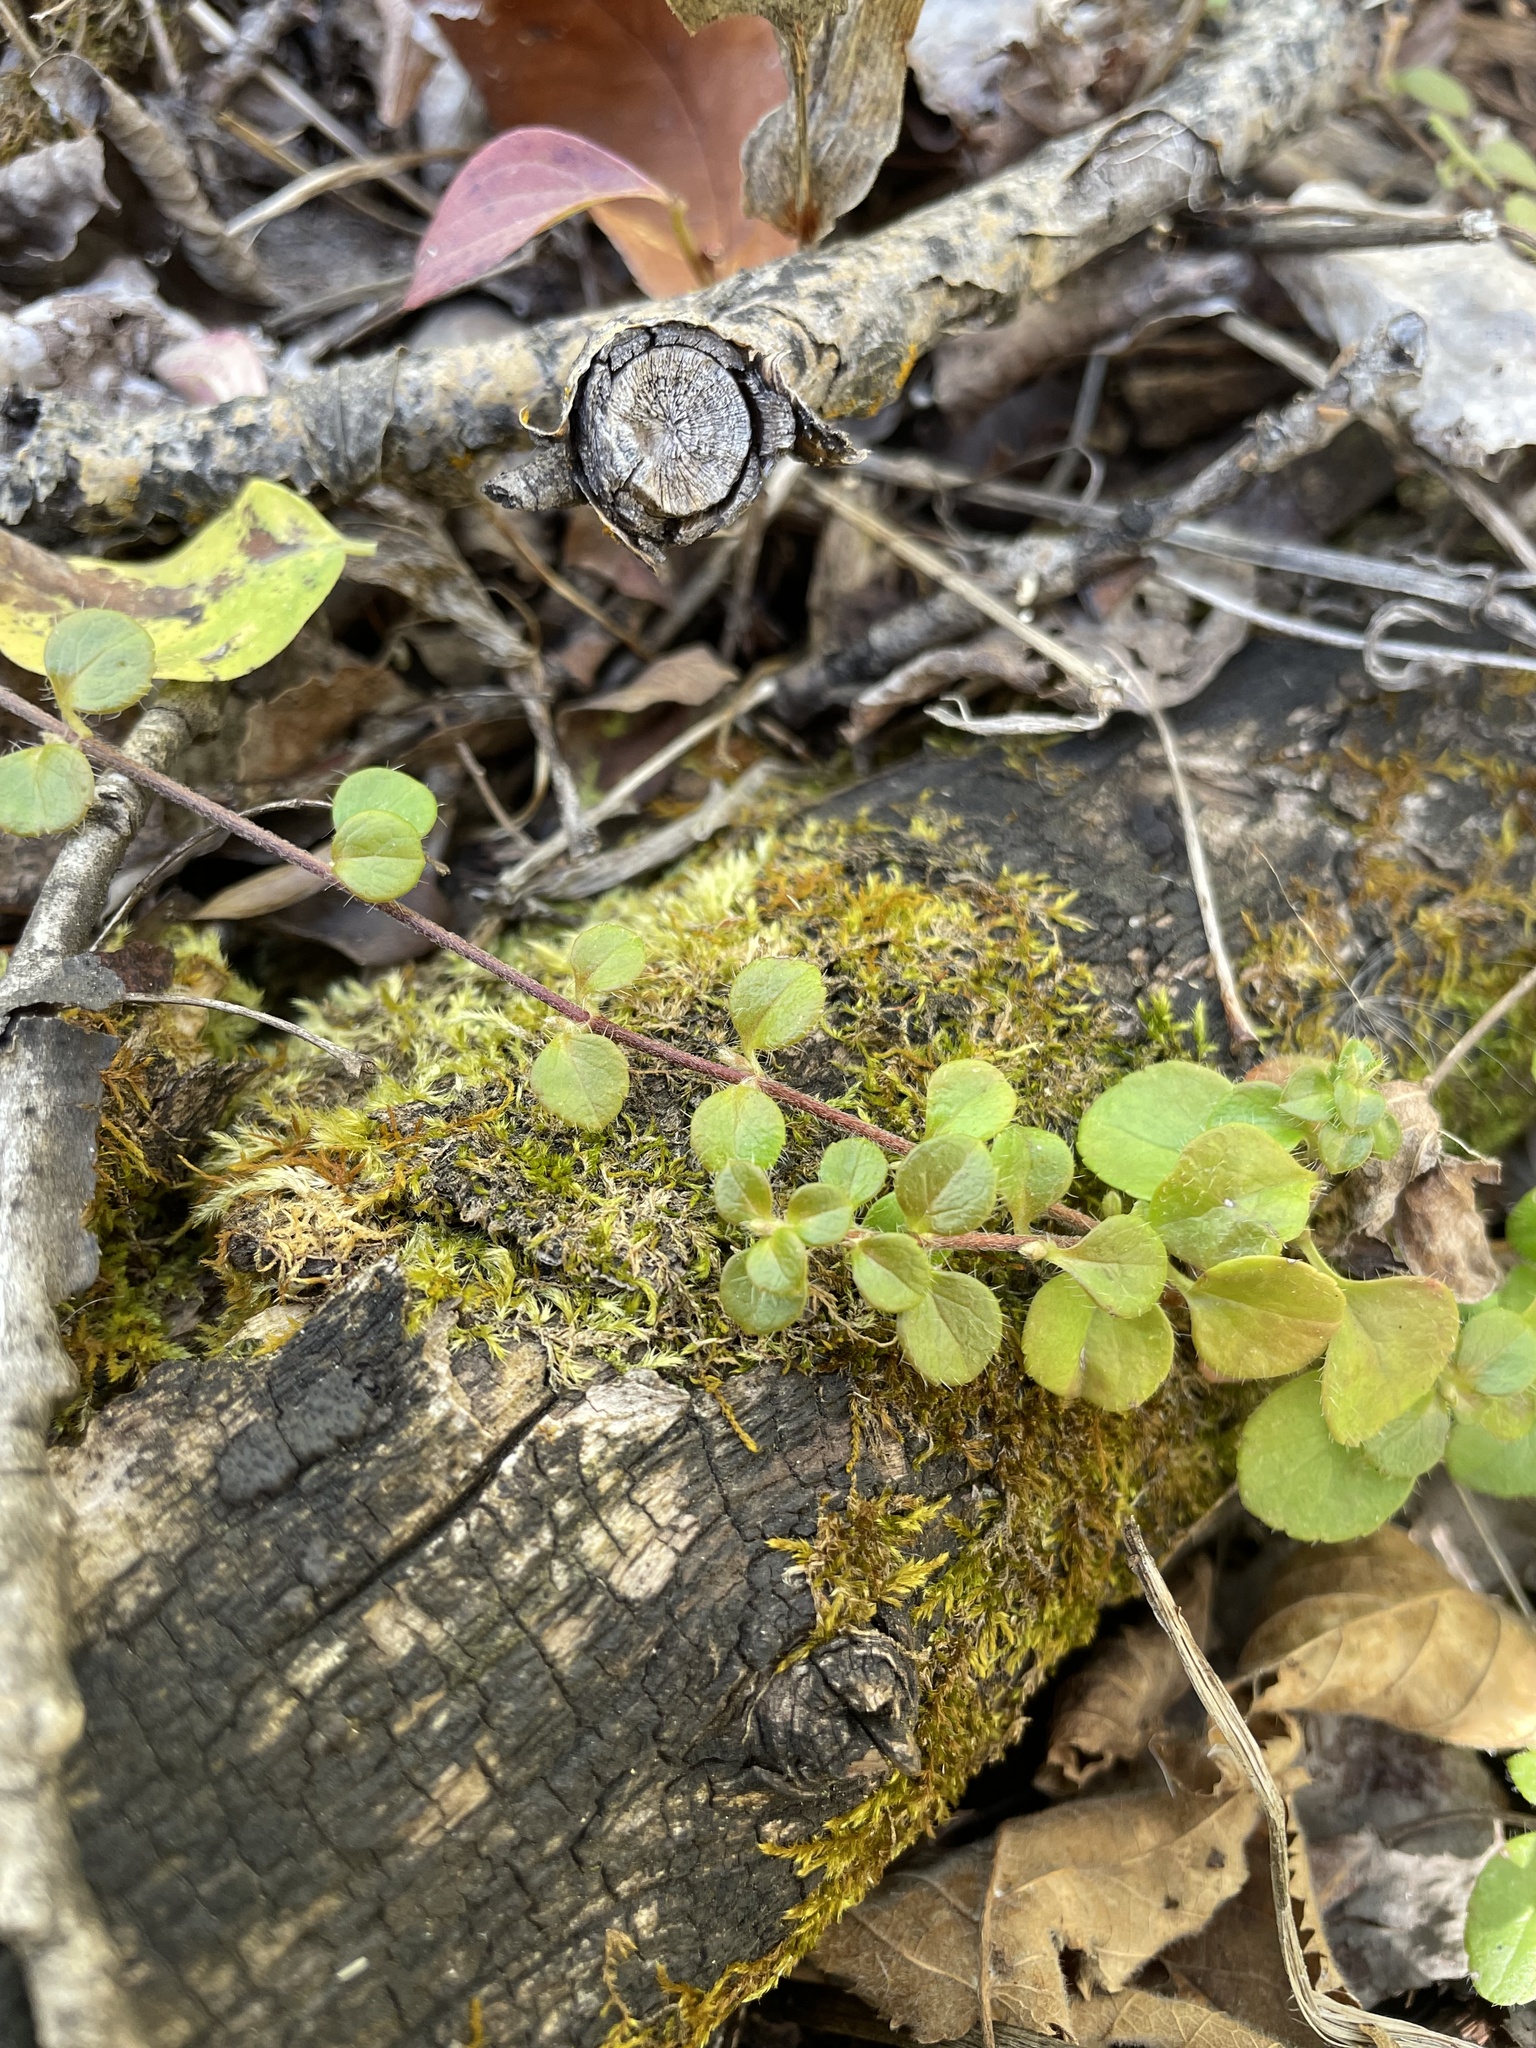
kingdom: Plantae
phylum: Tracheophyta
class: Magnoliopsida
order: Dipsacales
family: Caprifoliaceae
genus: Linnaea
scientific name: Linnaea borealis
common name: Twinflower
